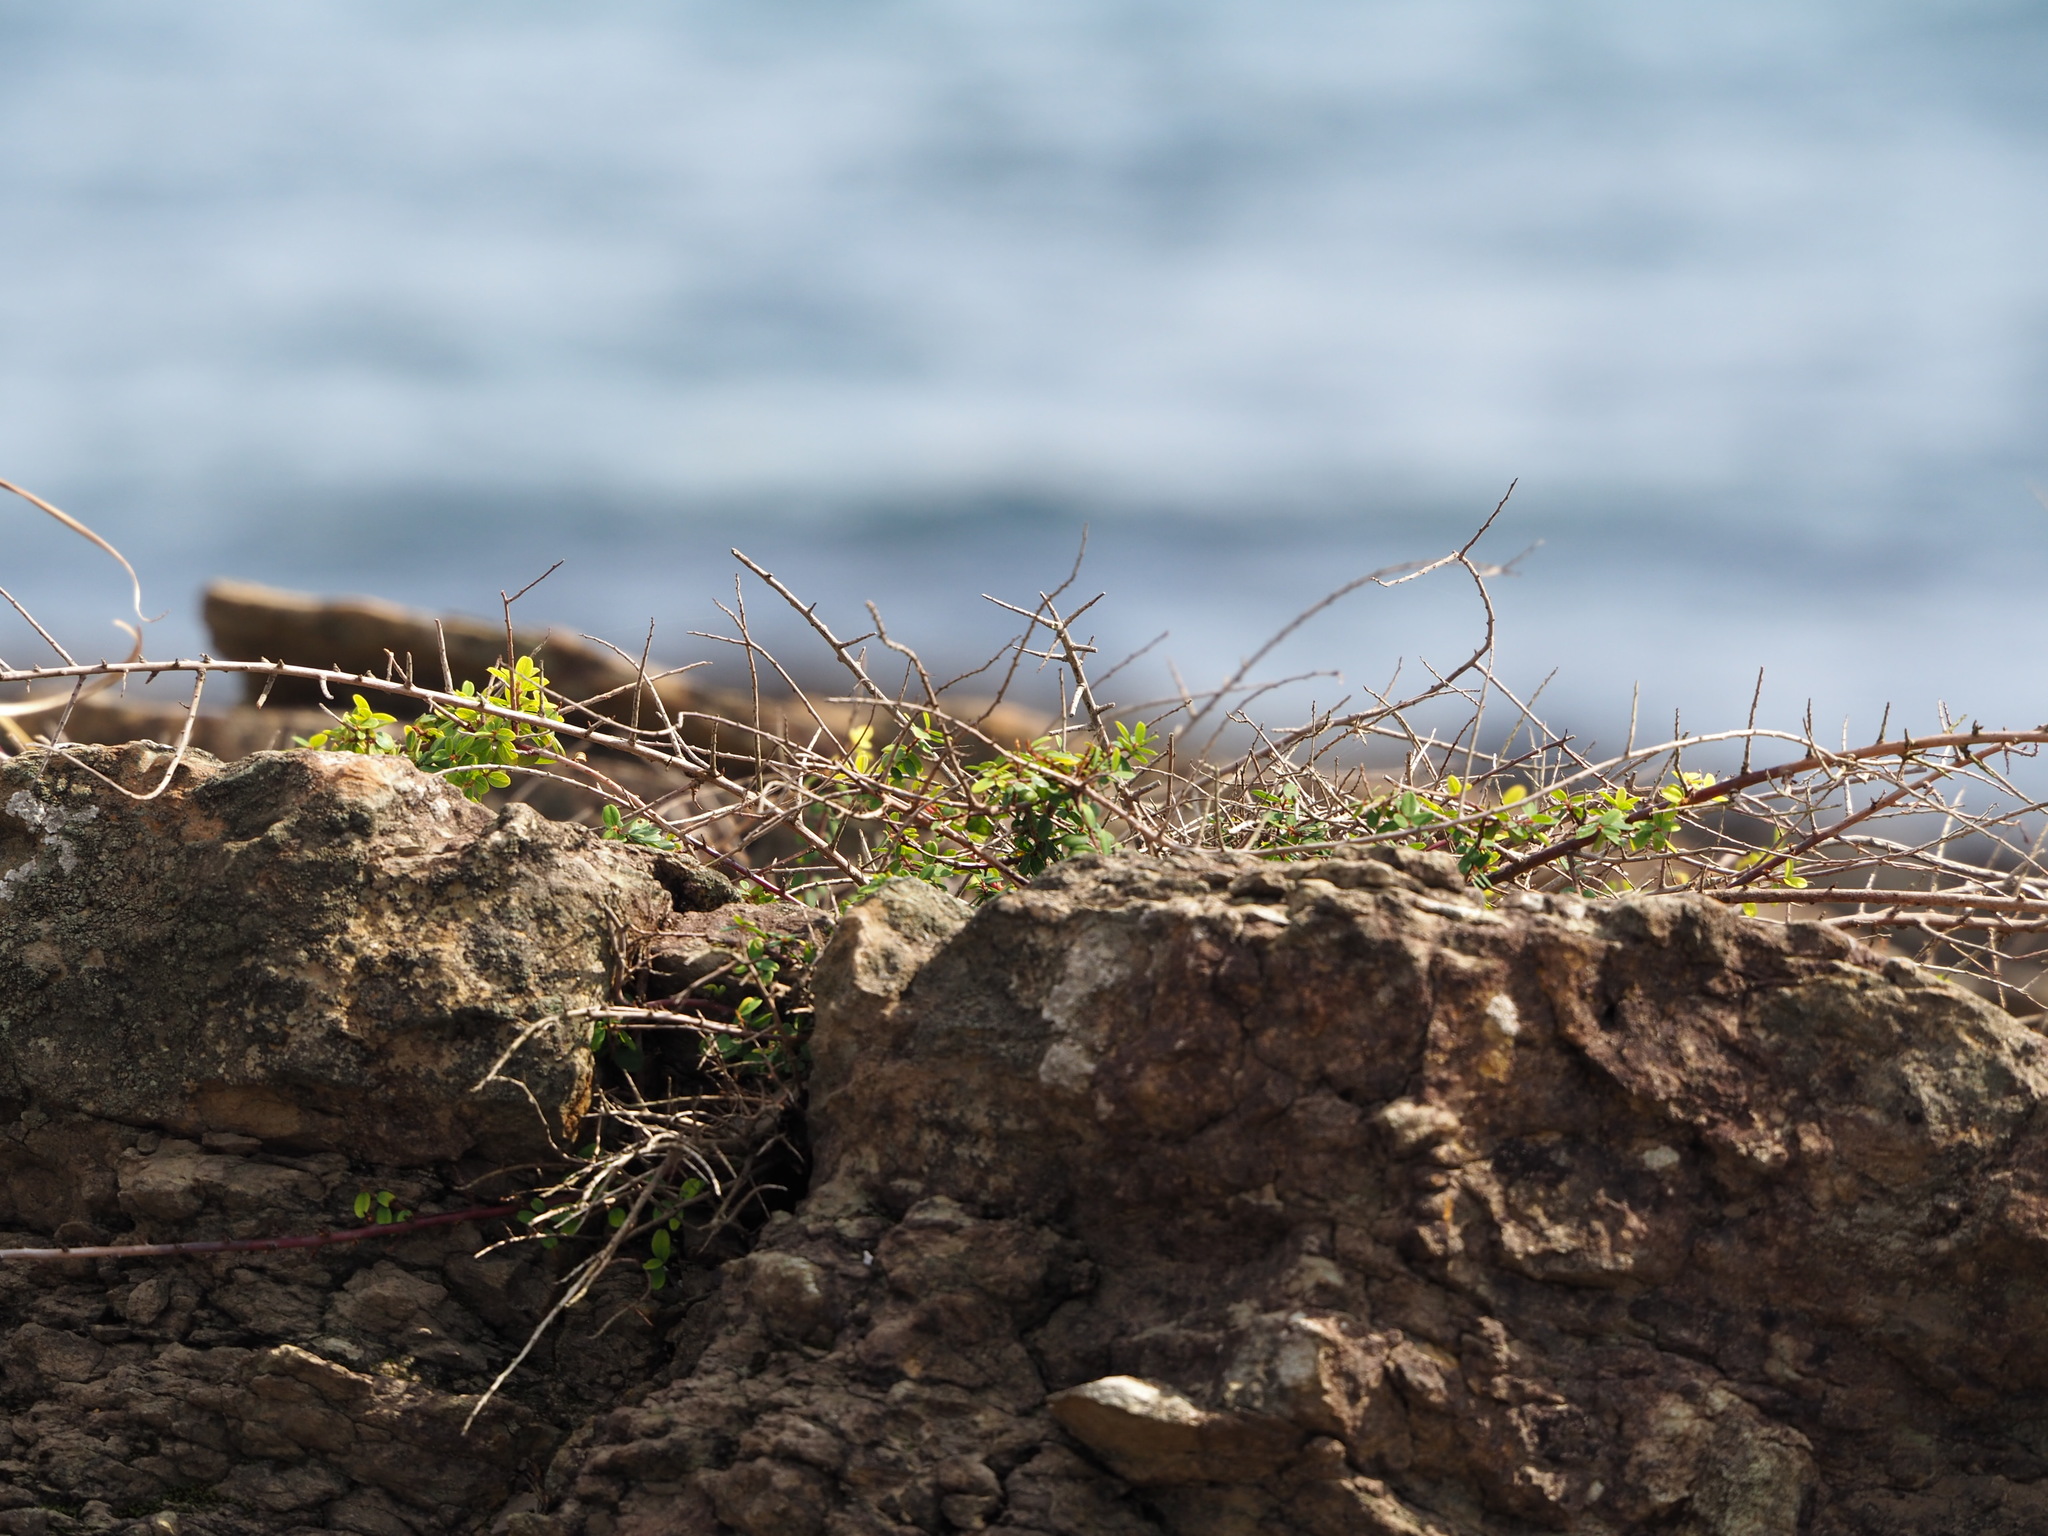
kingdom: Plantae
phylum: Tracheophyta
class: Magnoliopsida
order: Rosales
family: Rhamnaceae
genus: Berchemia
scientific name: Berchemia lineata
